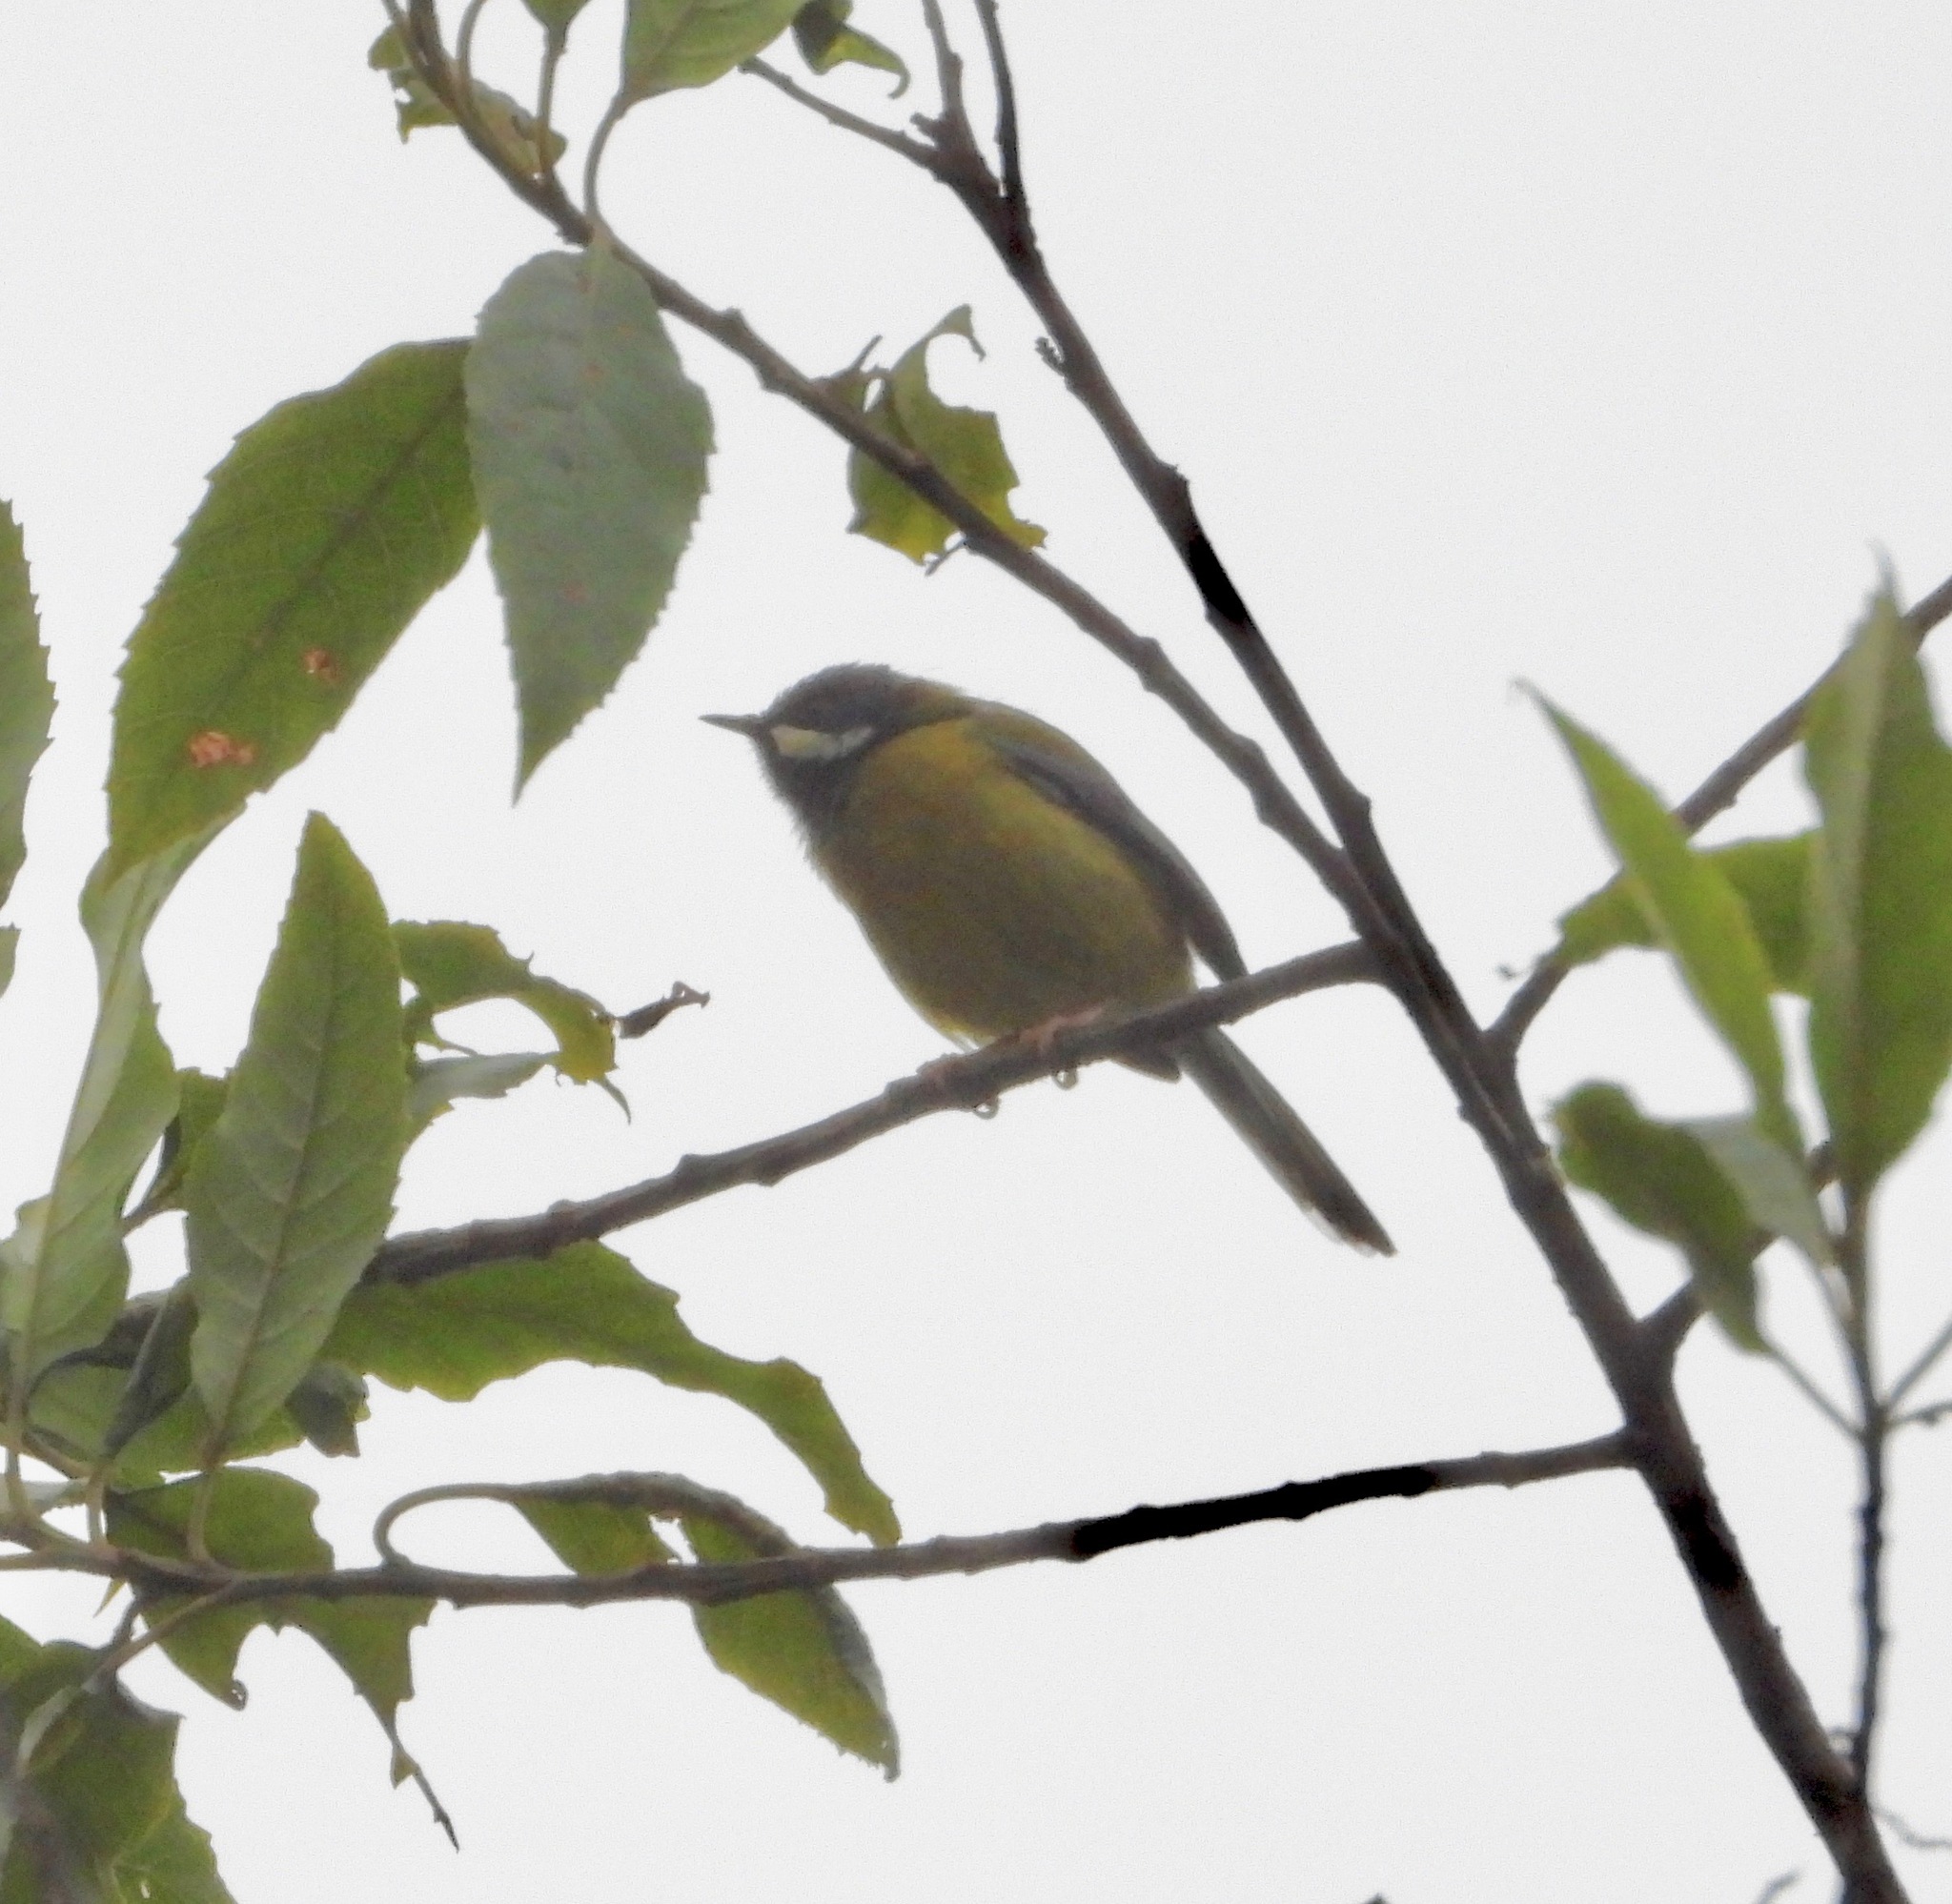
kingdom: Animalia
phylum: Chordata
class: Aves
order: Passeriformes
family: Cisticolidae
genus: Apalis
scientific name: Apalis jacksoni
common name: Black-throated apalis
